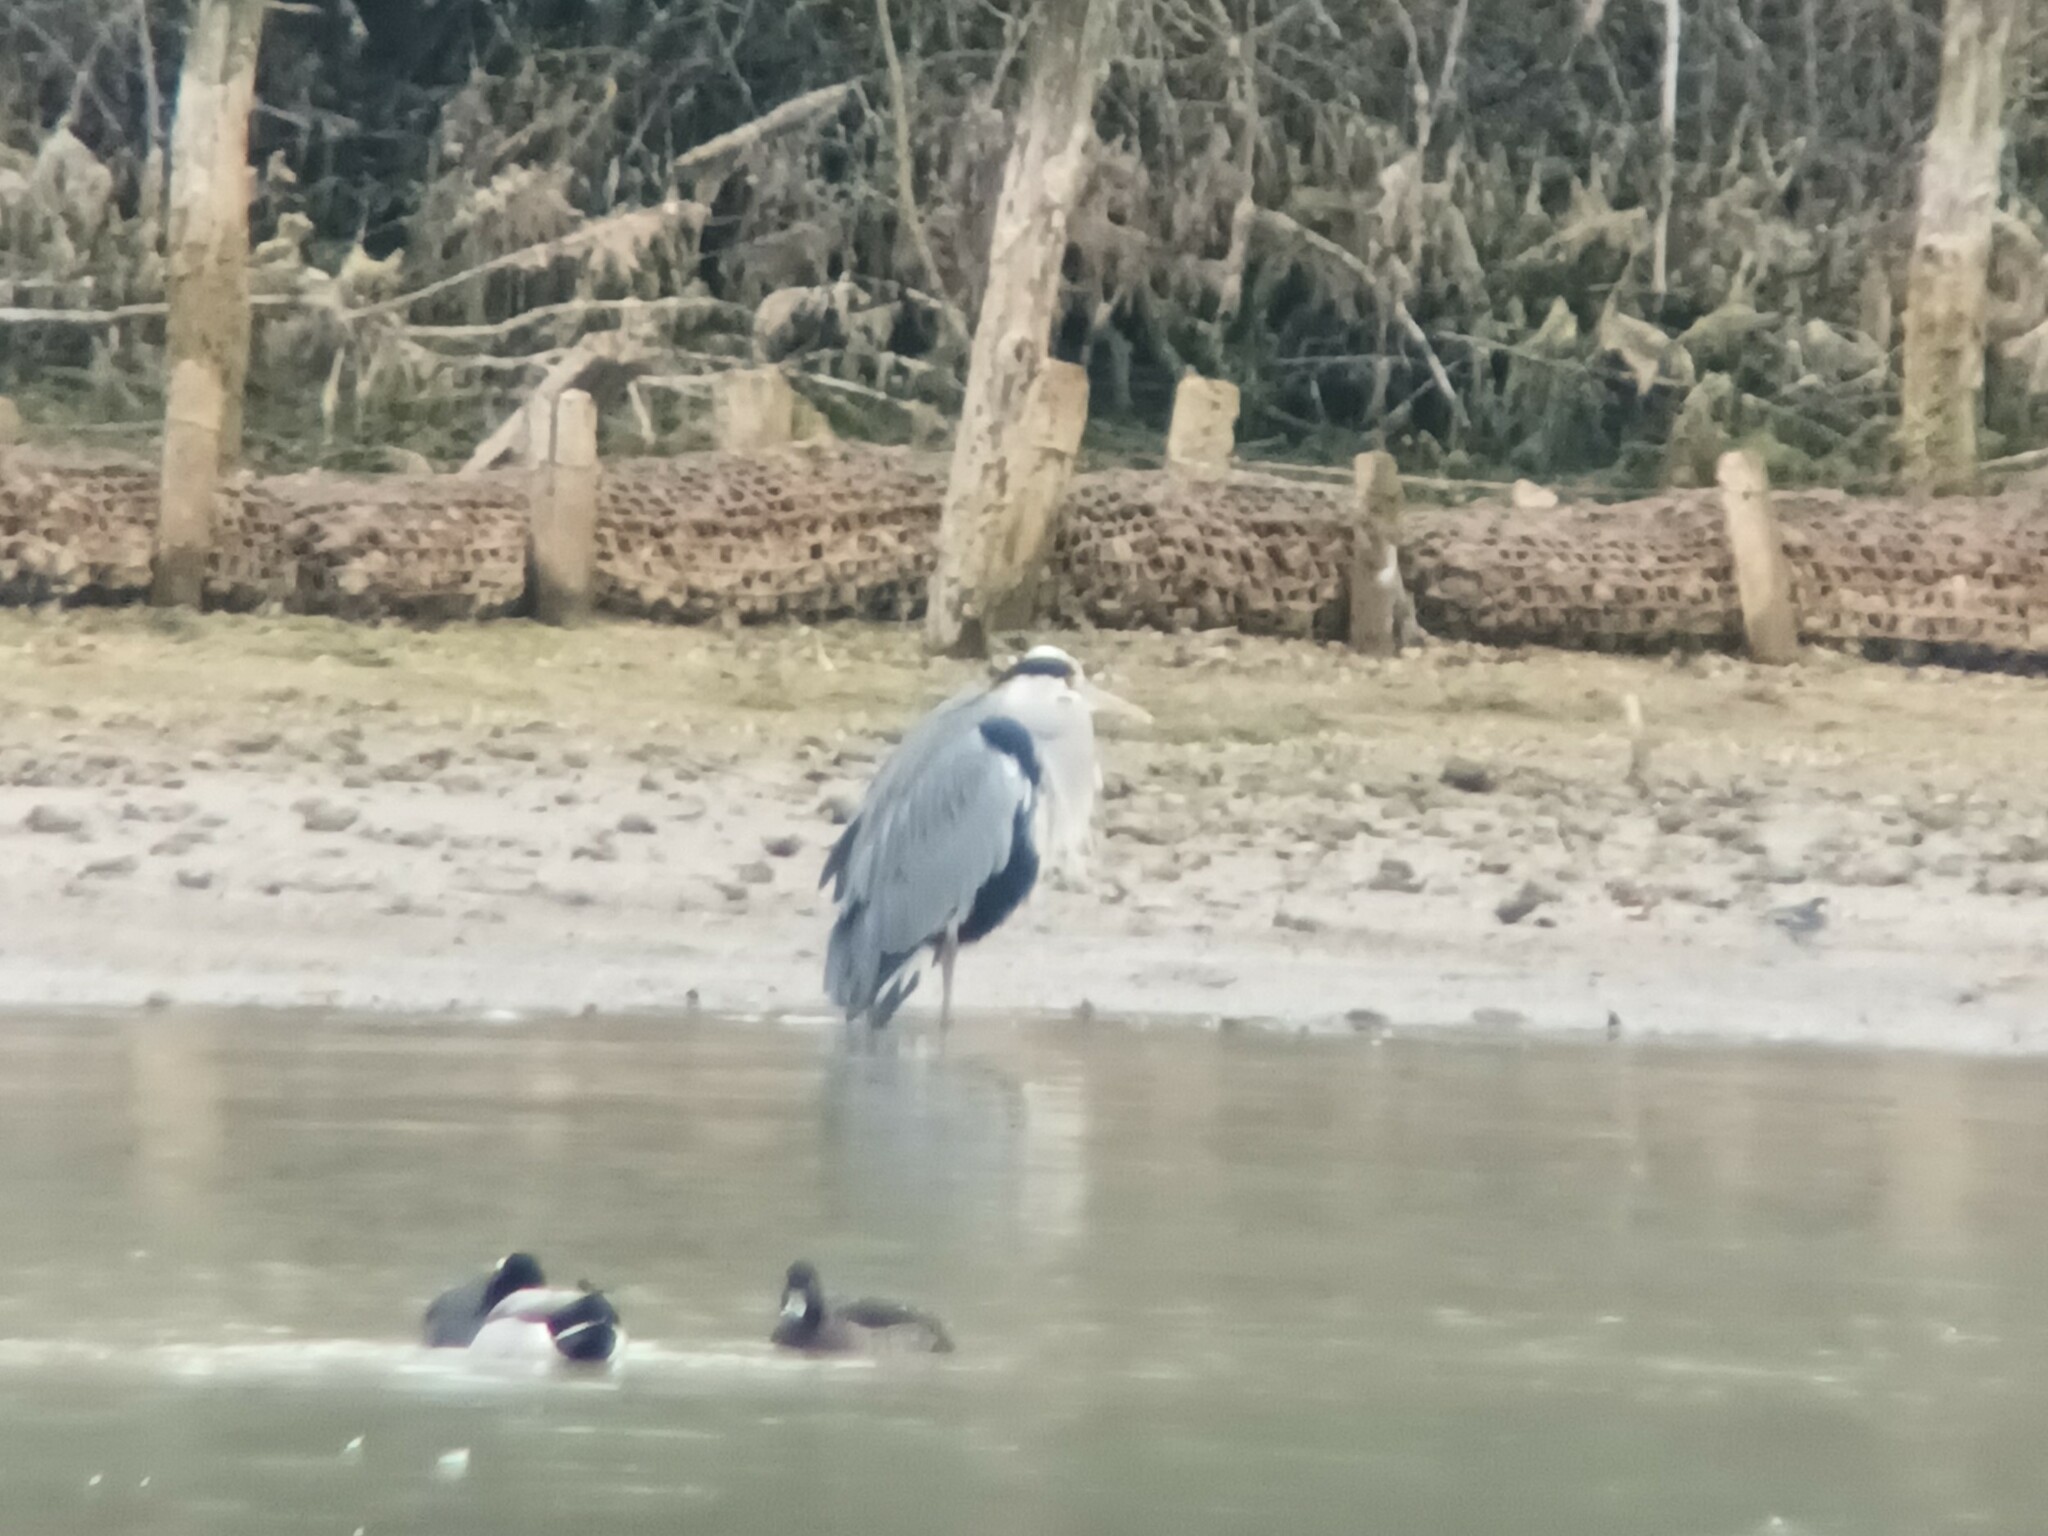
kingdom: Animalia
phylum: Chordata
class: Aves
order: Pelecaniformes
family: Ardeidae
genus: Ardea
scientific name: Ardea cinerea
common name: Grey heron
